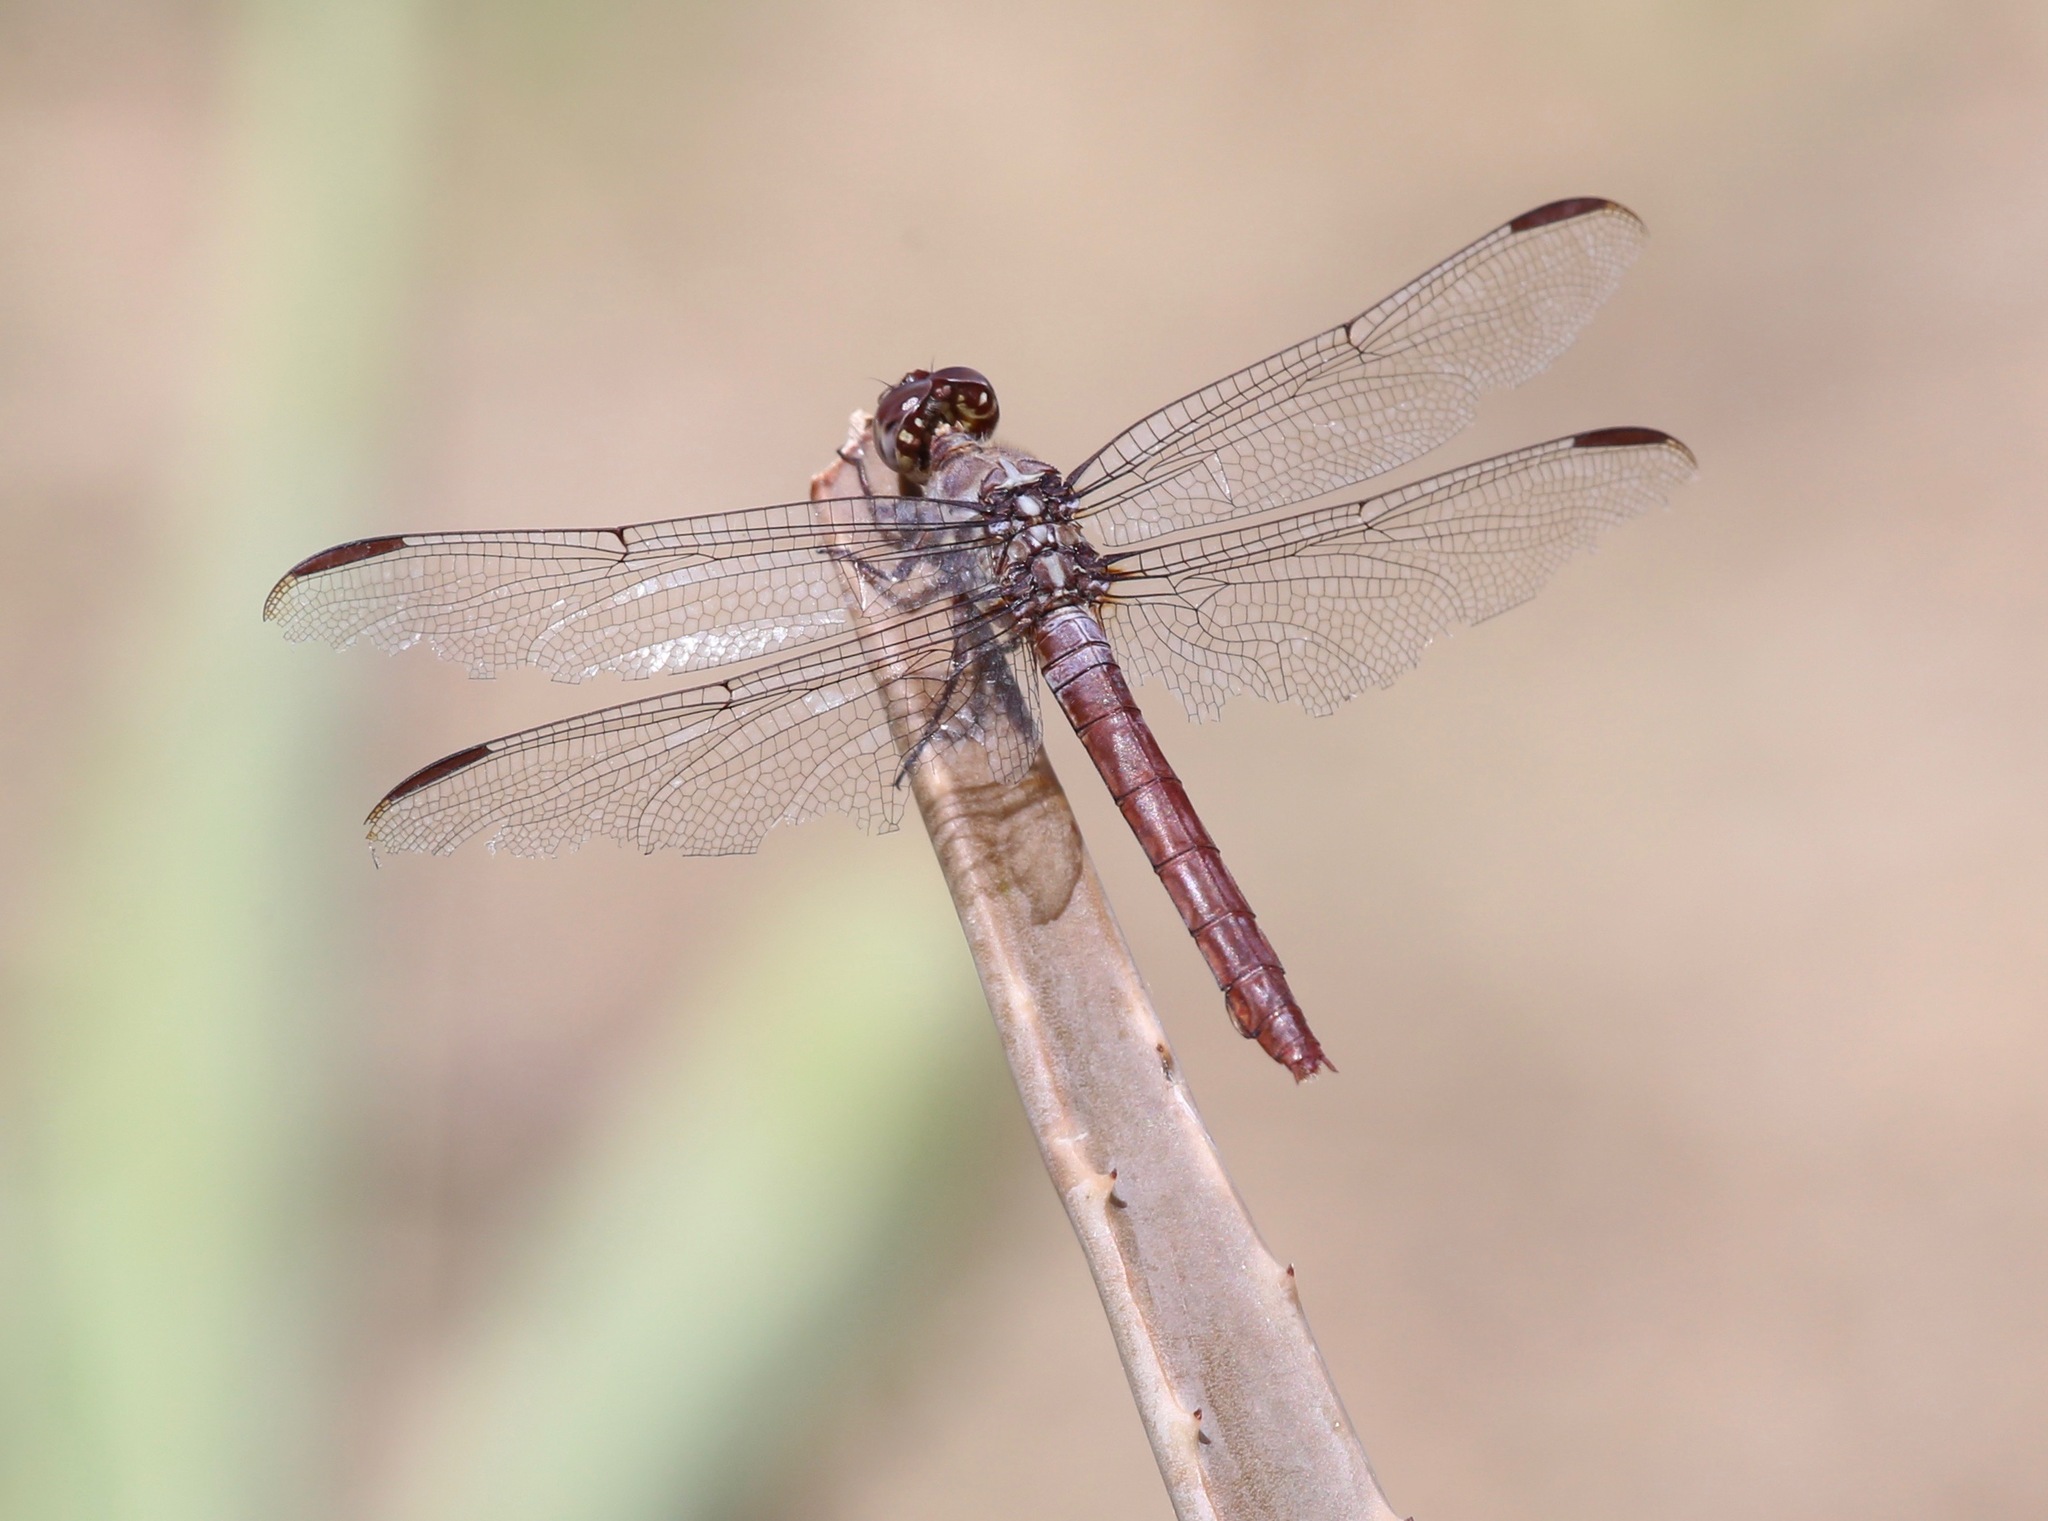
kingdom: Animalia
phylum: Arthropoda
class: Insecta
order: Odonata
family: Libellulidae
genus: Orthemis
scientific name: Orthemis ferruginea
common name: Roseate skimmer
